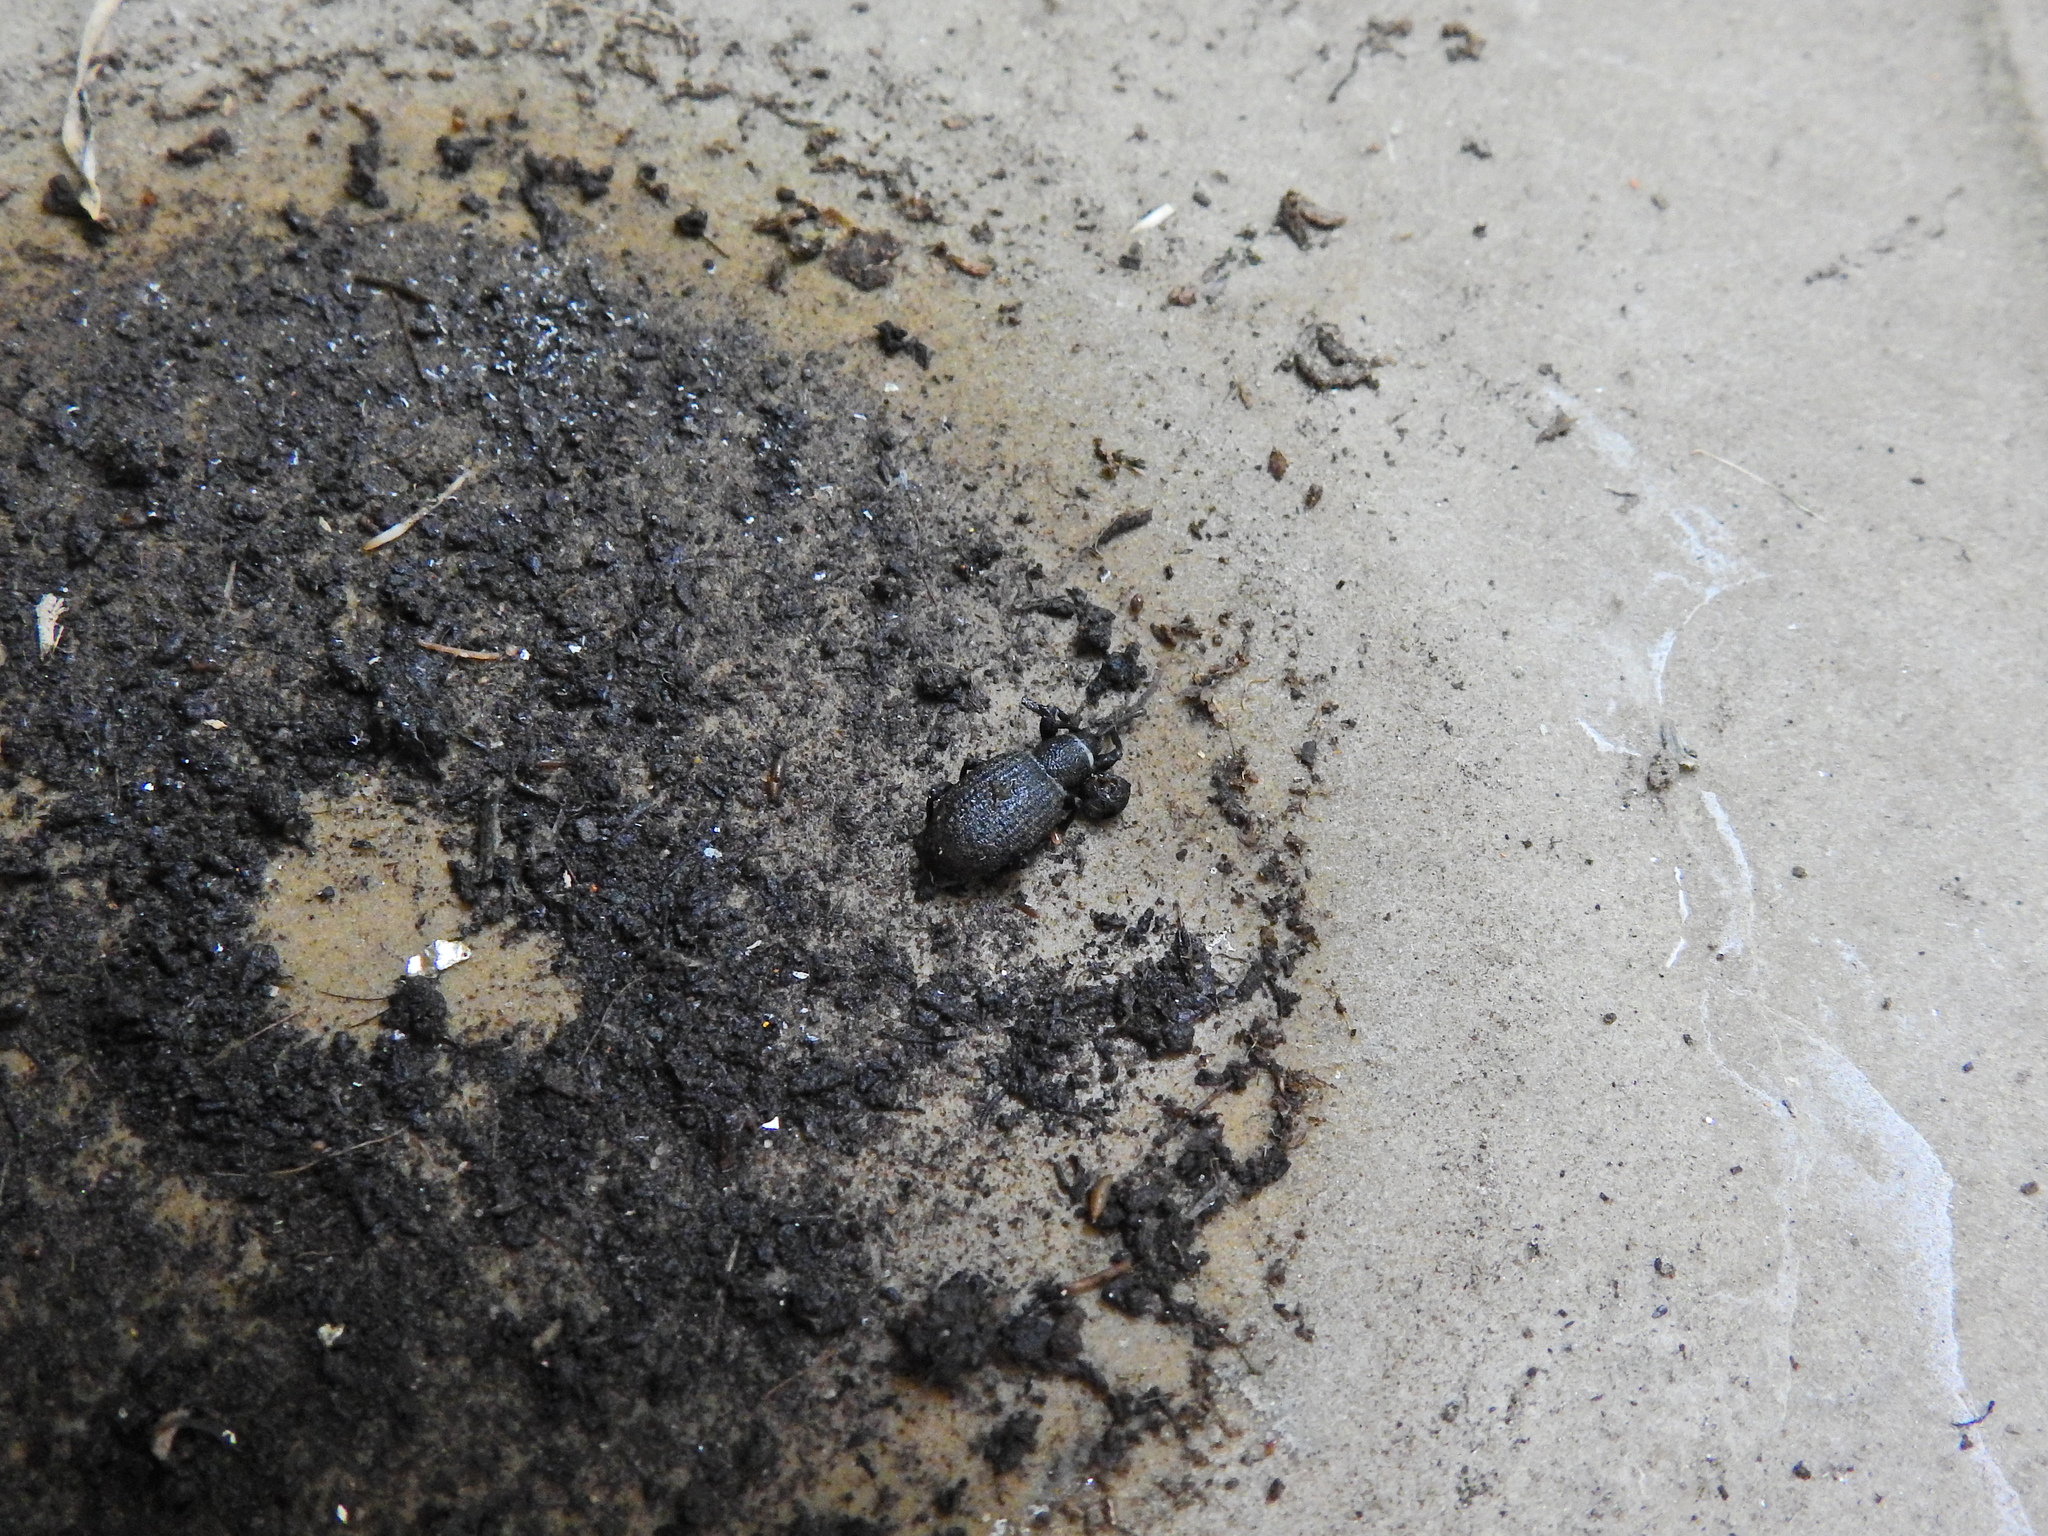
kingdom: Animalia
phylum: Arthropoda
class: Insecta
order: Coleoptera
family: Curculionidae
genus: Otiorhynchus
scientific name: Otiorhynchus sulcatus
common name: Black vine weevil
